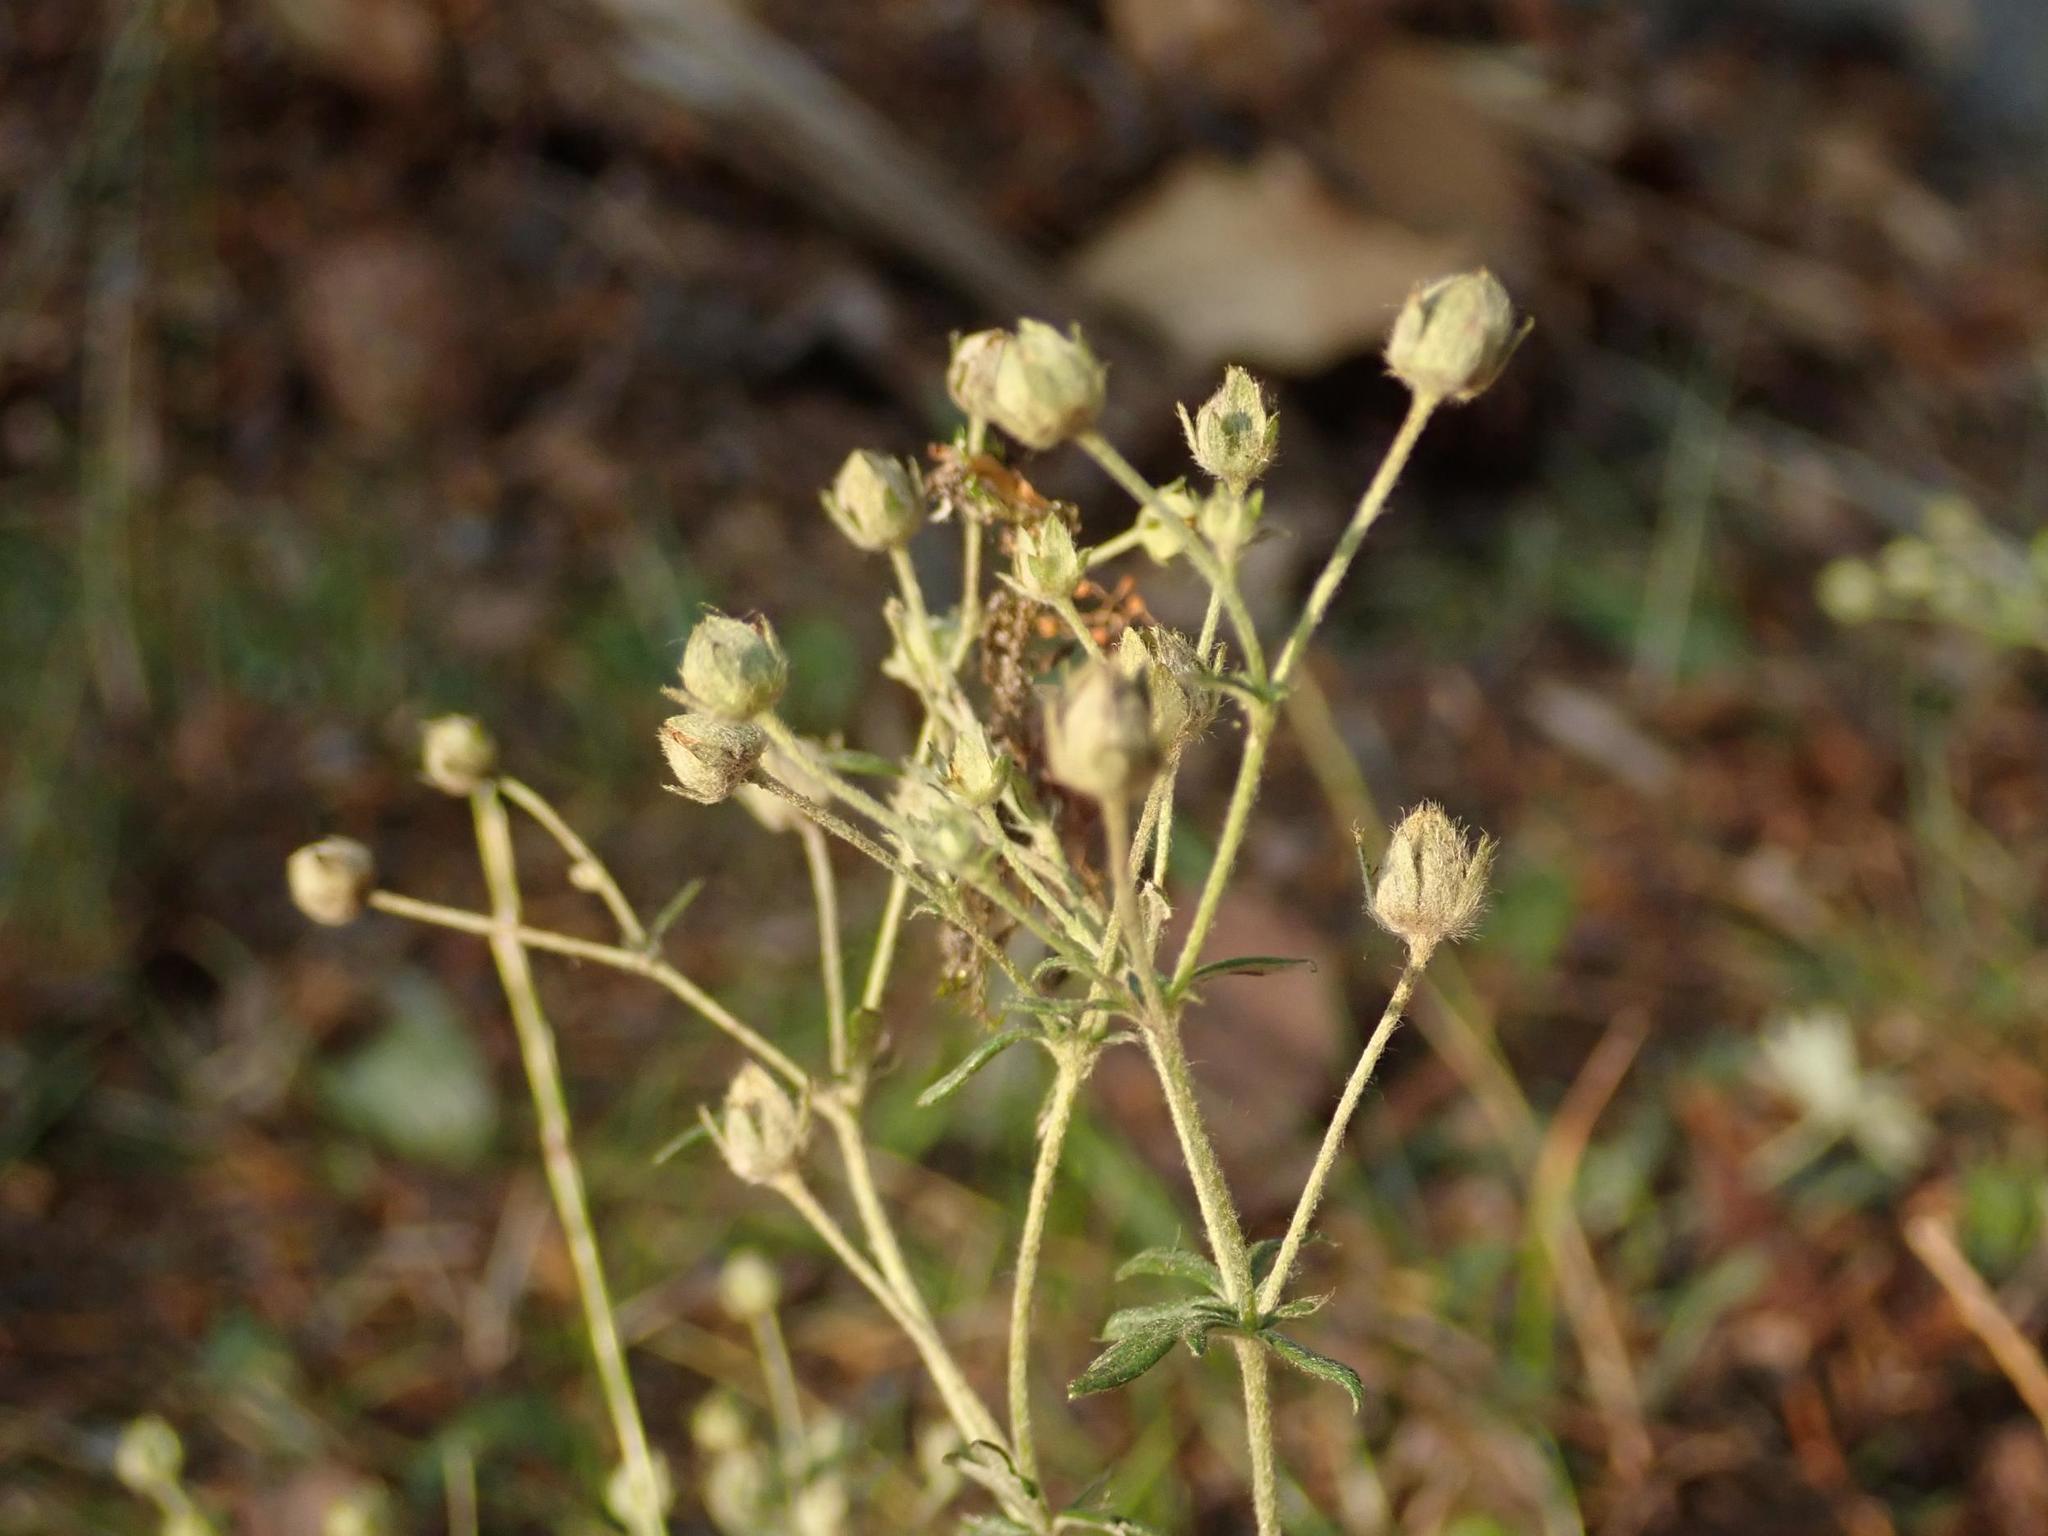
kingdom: Plantae
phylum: Tracheophyta
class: Magnoliopsida
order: Rosales
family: Rosaceae
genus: Potentilla
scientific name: Potentilla argentea
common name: Hoary cinquefoil
